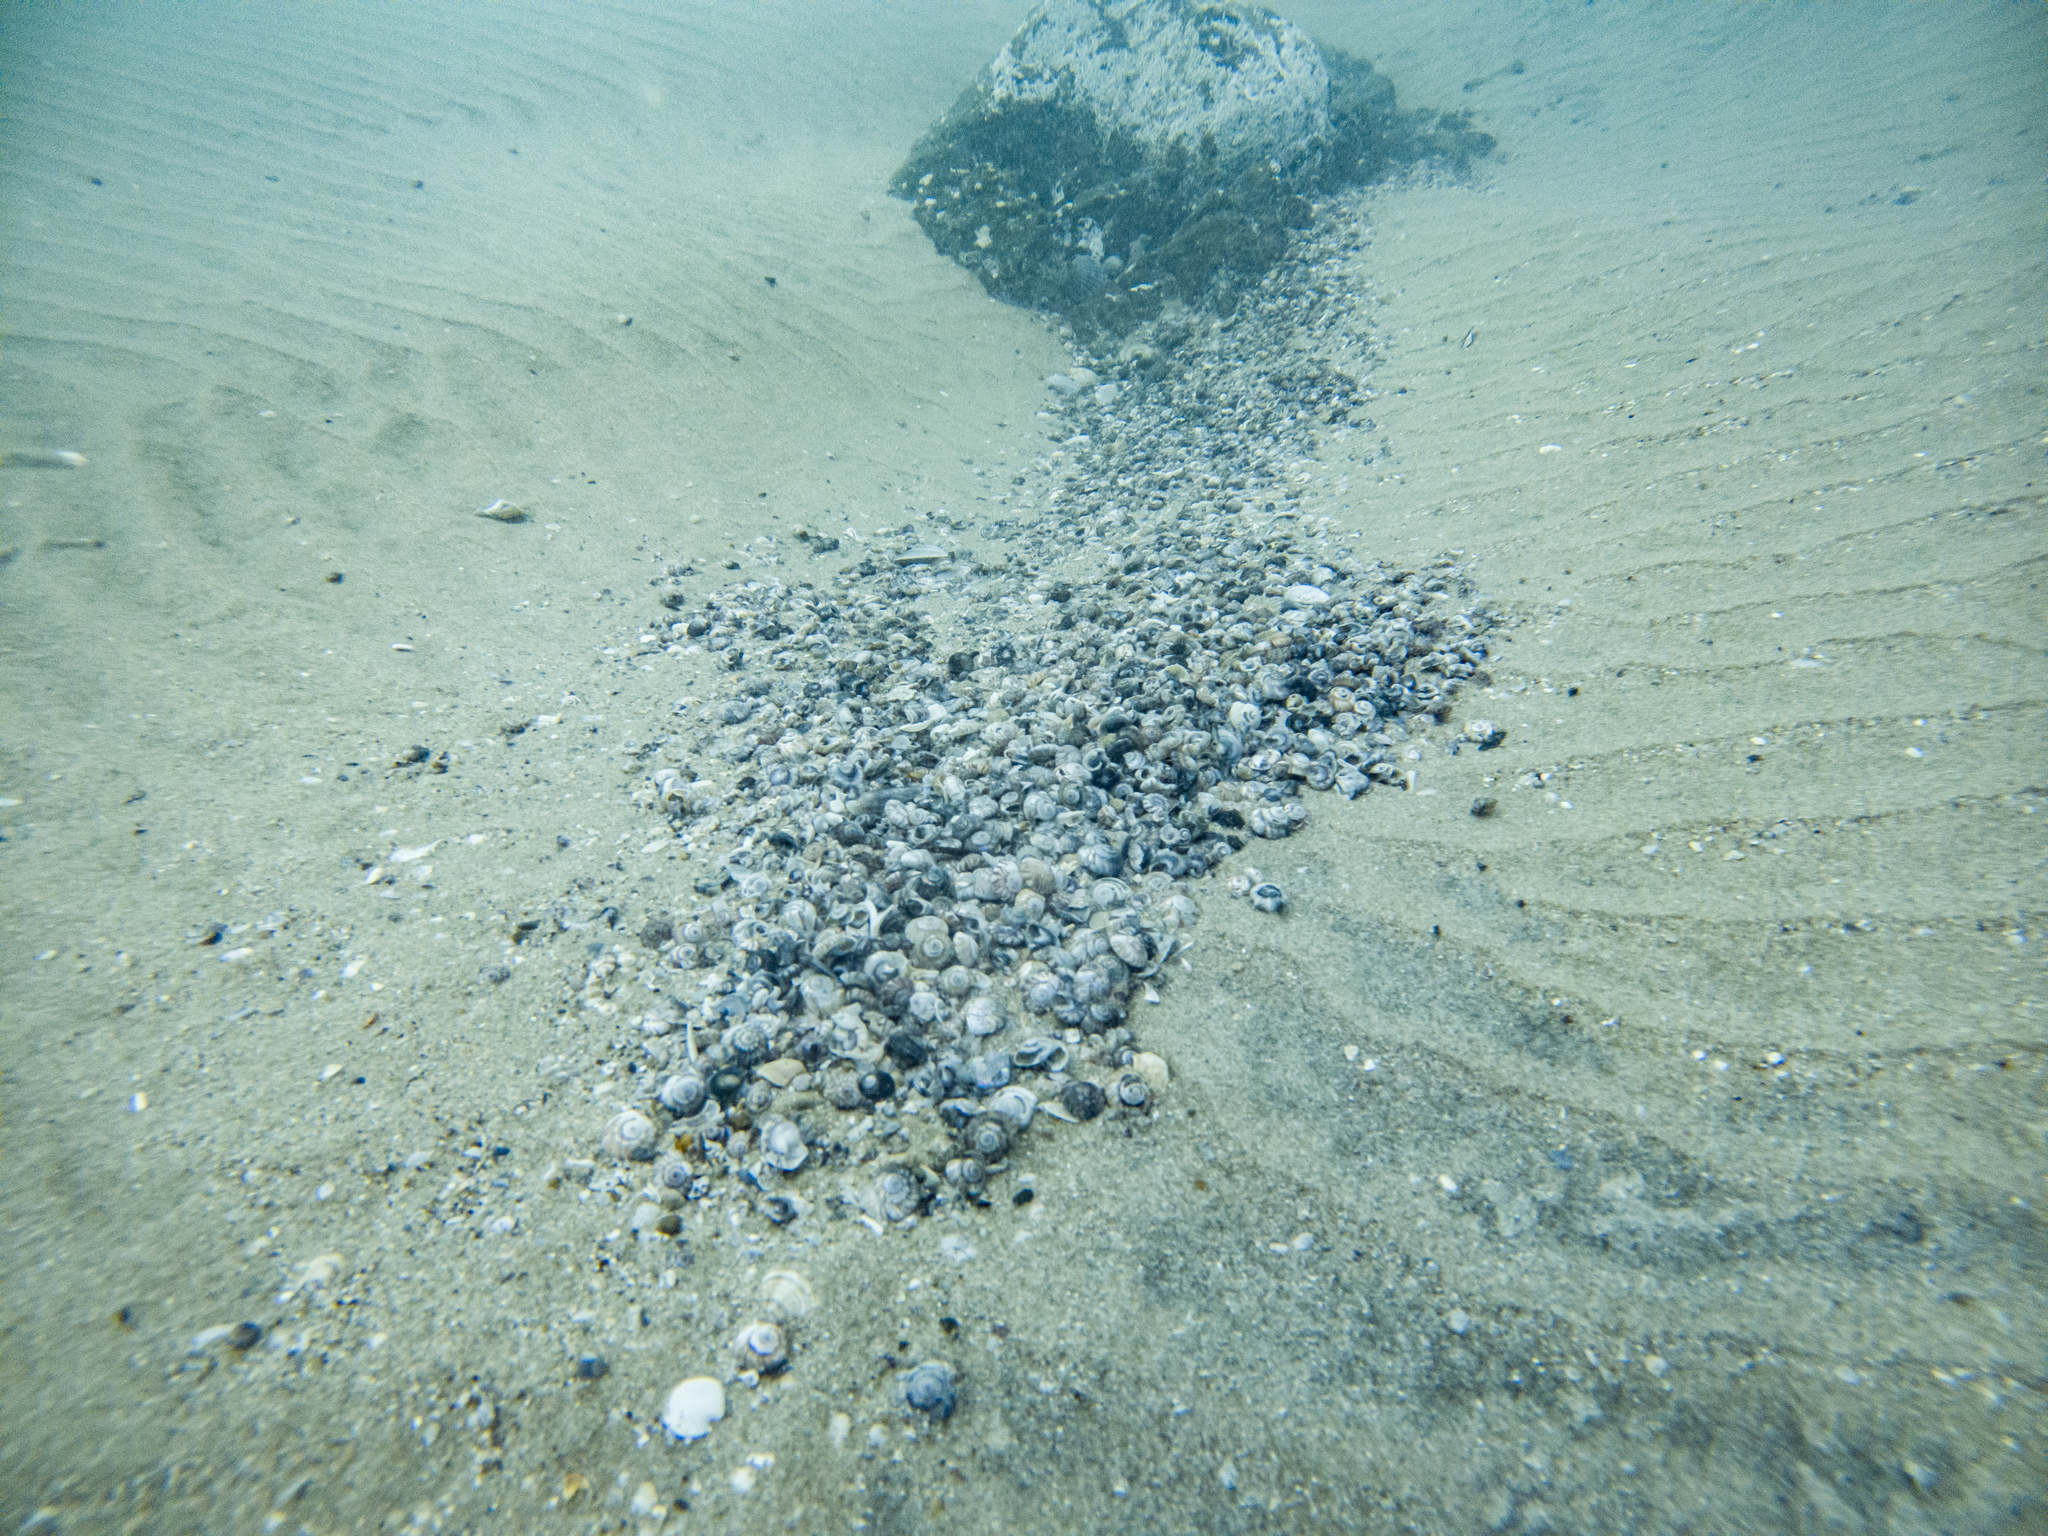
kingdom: Animalia
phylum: Mollusca
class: Gastropoda
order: Trochida
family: Trochidae
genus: Zethalia
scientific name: Zethalia zelandica
